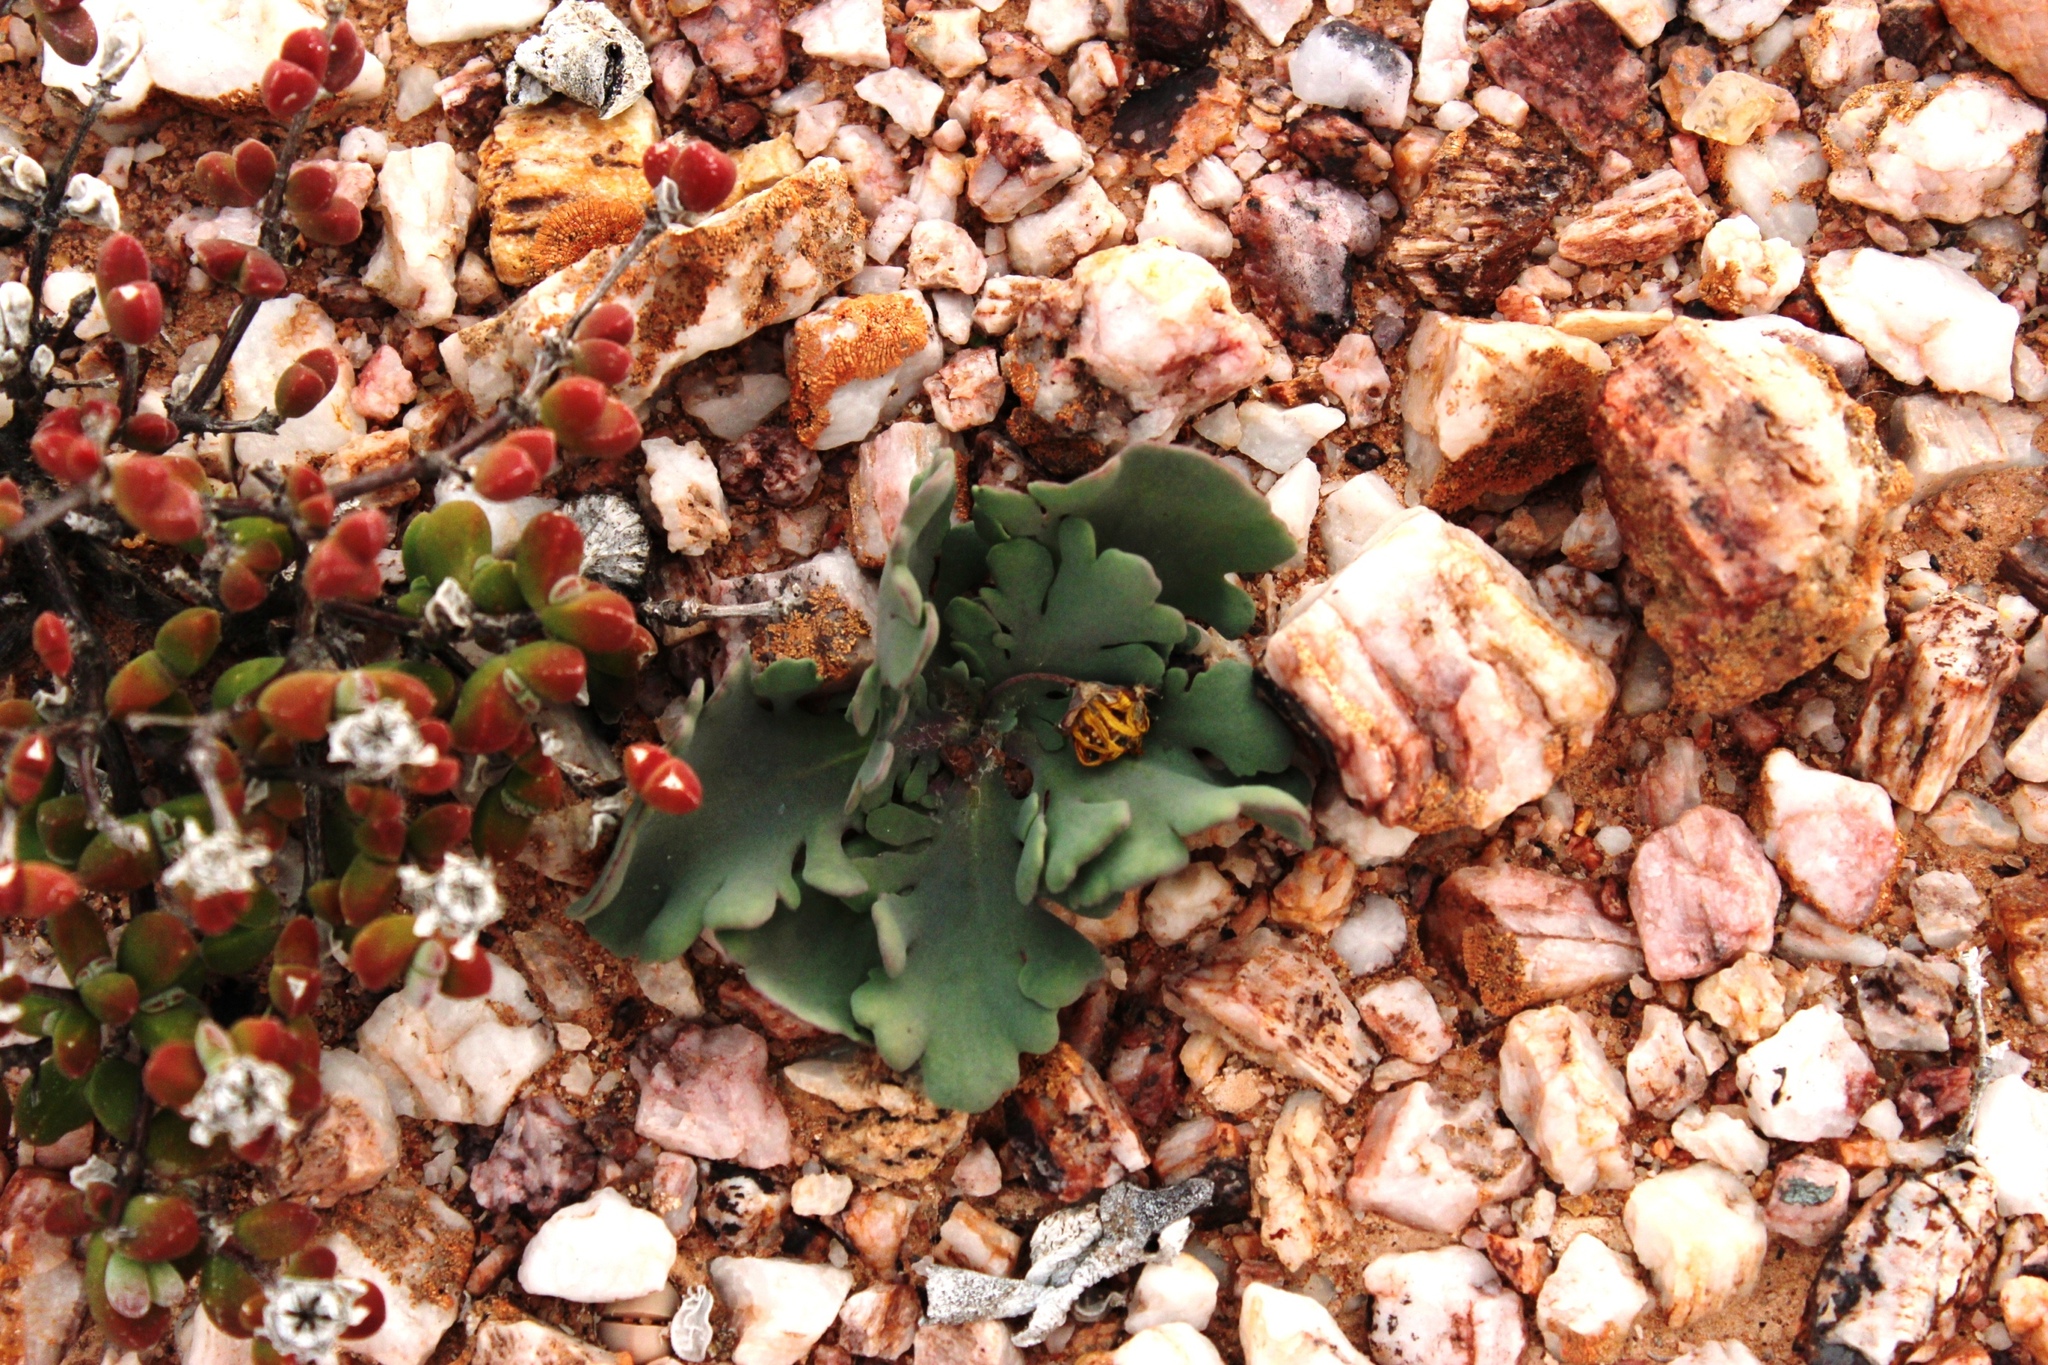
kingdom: Plantae
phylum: Tracheophyta
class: Magnoliopsida
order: Asterales
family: Asteraceae
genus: Othonna
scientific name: Othonna auriculifolia
